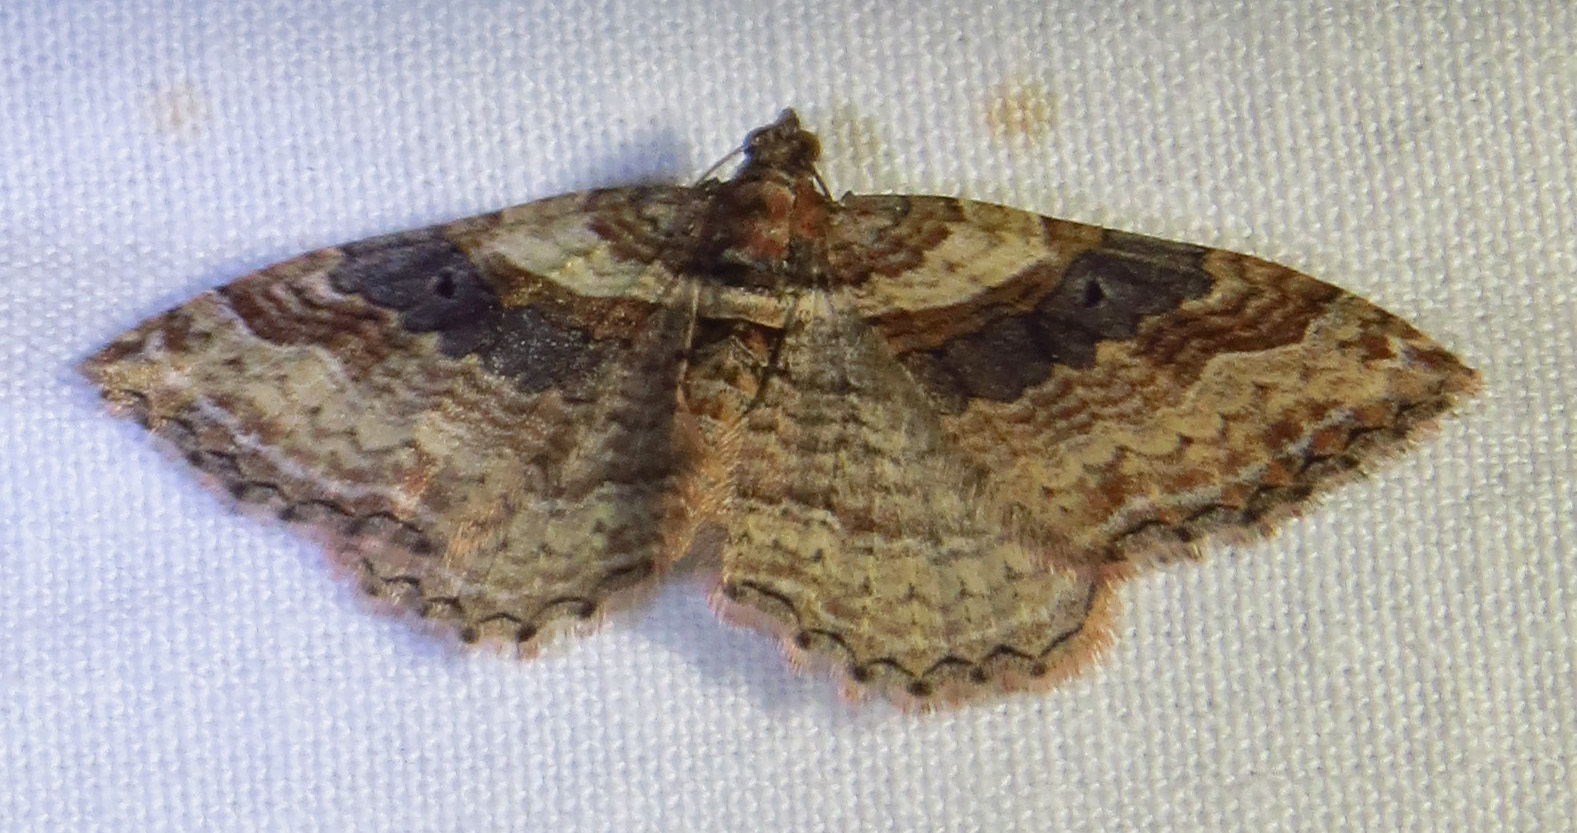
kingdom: Animalia
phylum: Arthropoda
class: Insecta
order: Lepidoptera
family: Geometridae
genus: Costaconvexa
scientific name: Costaconvexa centrostrigaria
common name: Bent-line carpet
